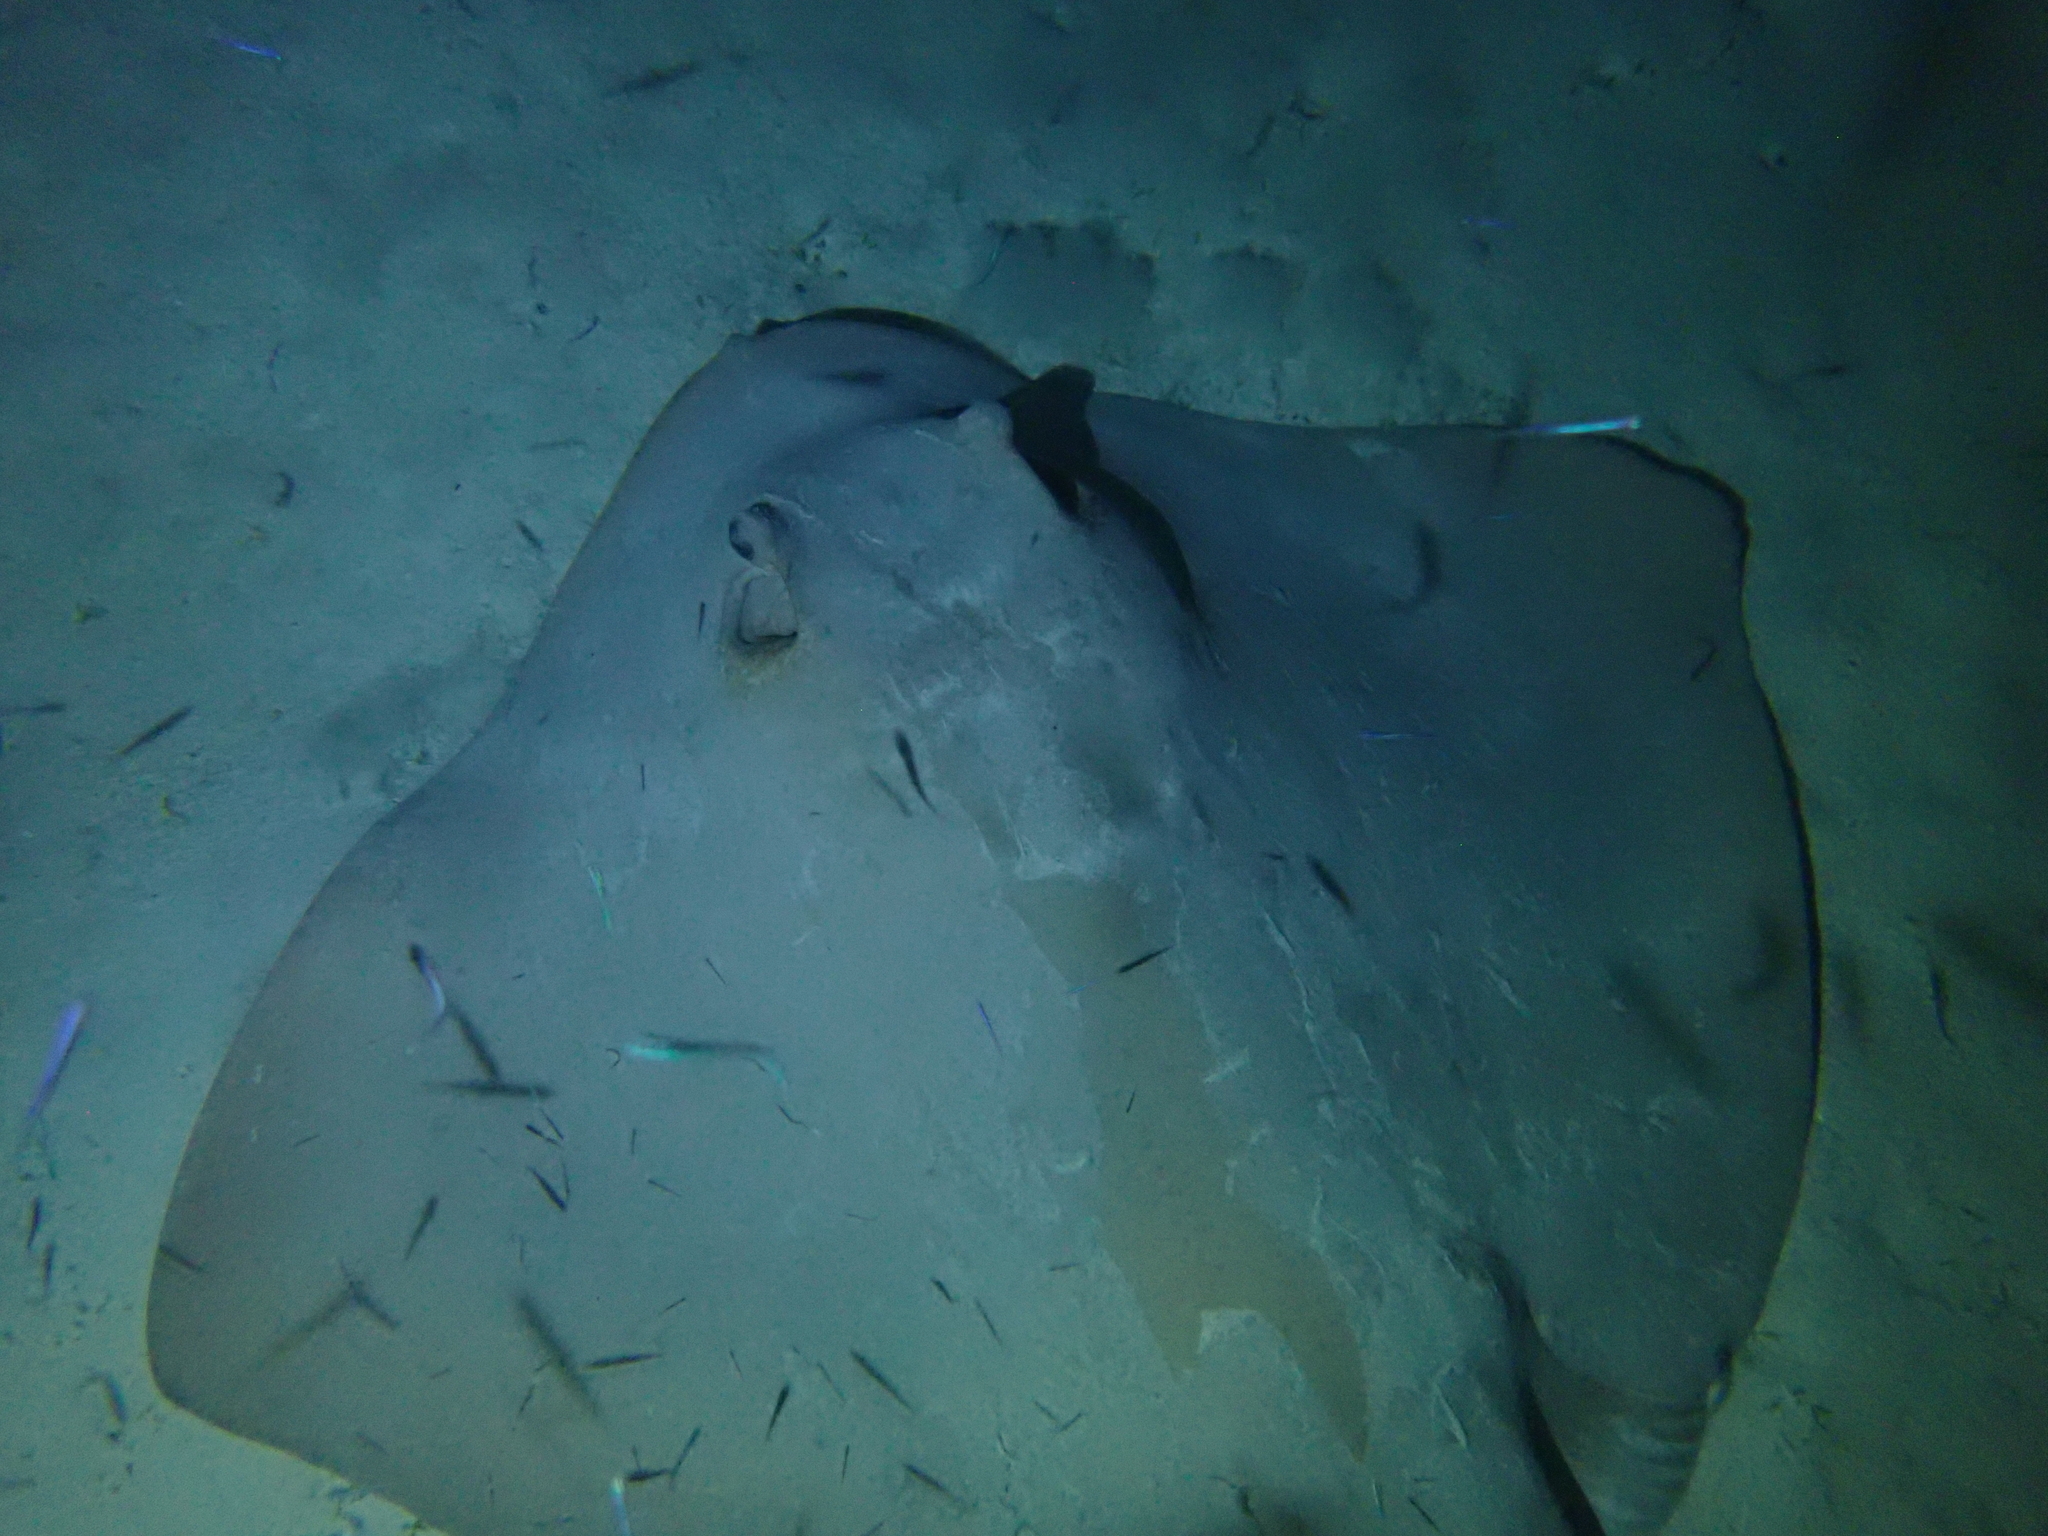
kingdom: Animalia
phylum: Chordata
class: Elasmobranchii
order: Myliobatiformes
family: Dasyatidae
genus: Pastinachus
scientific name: Pastinachus ater
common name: Banana-tail ray
